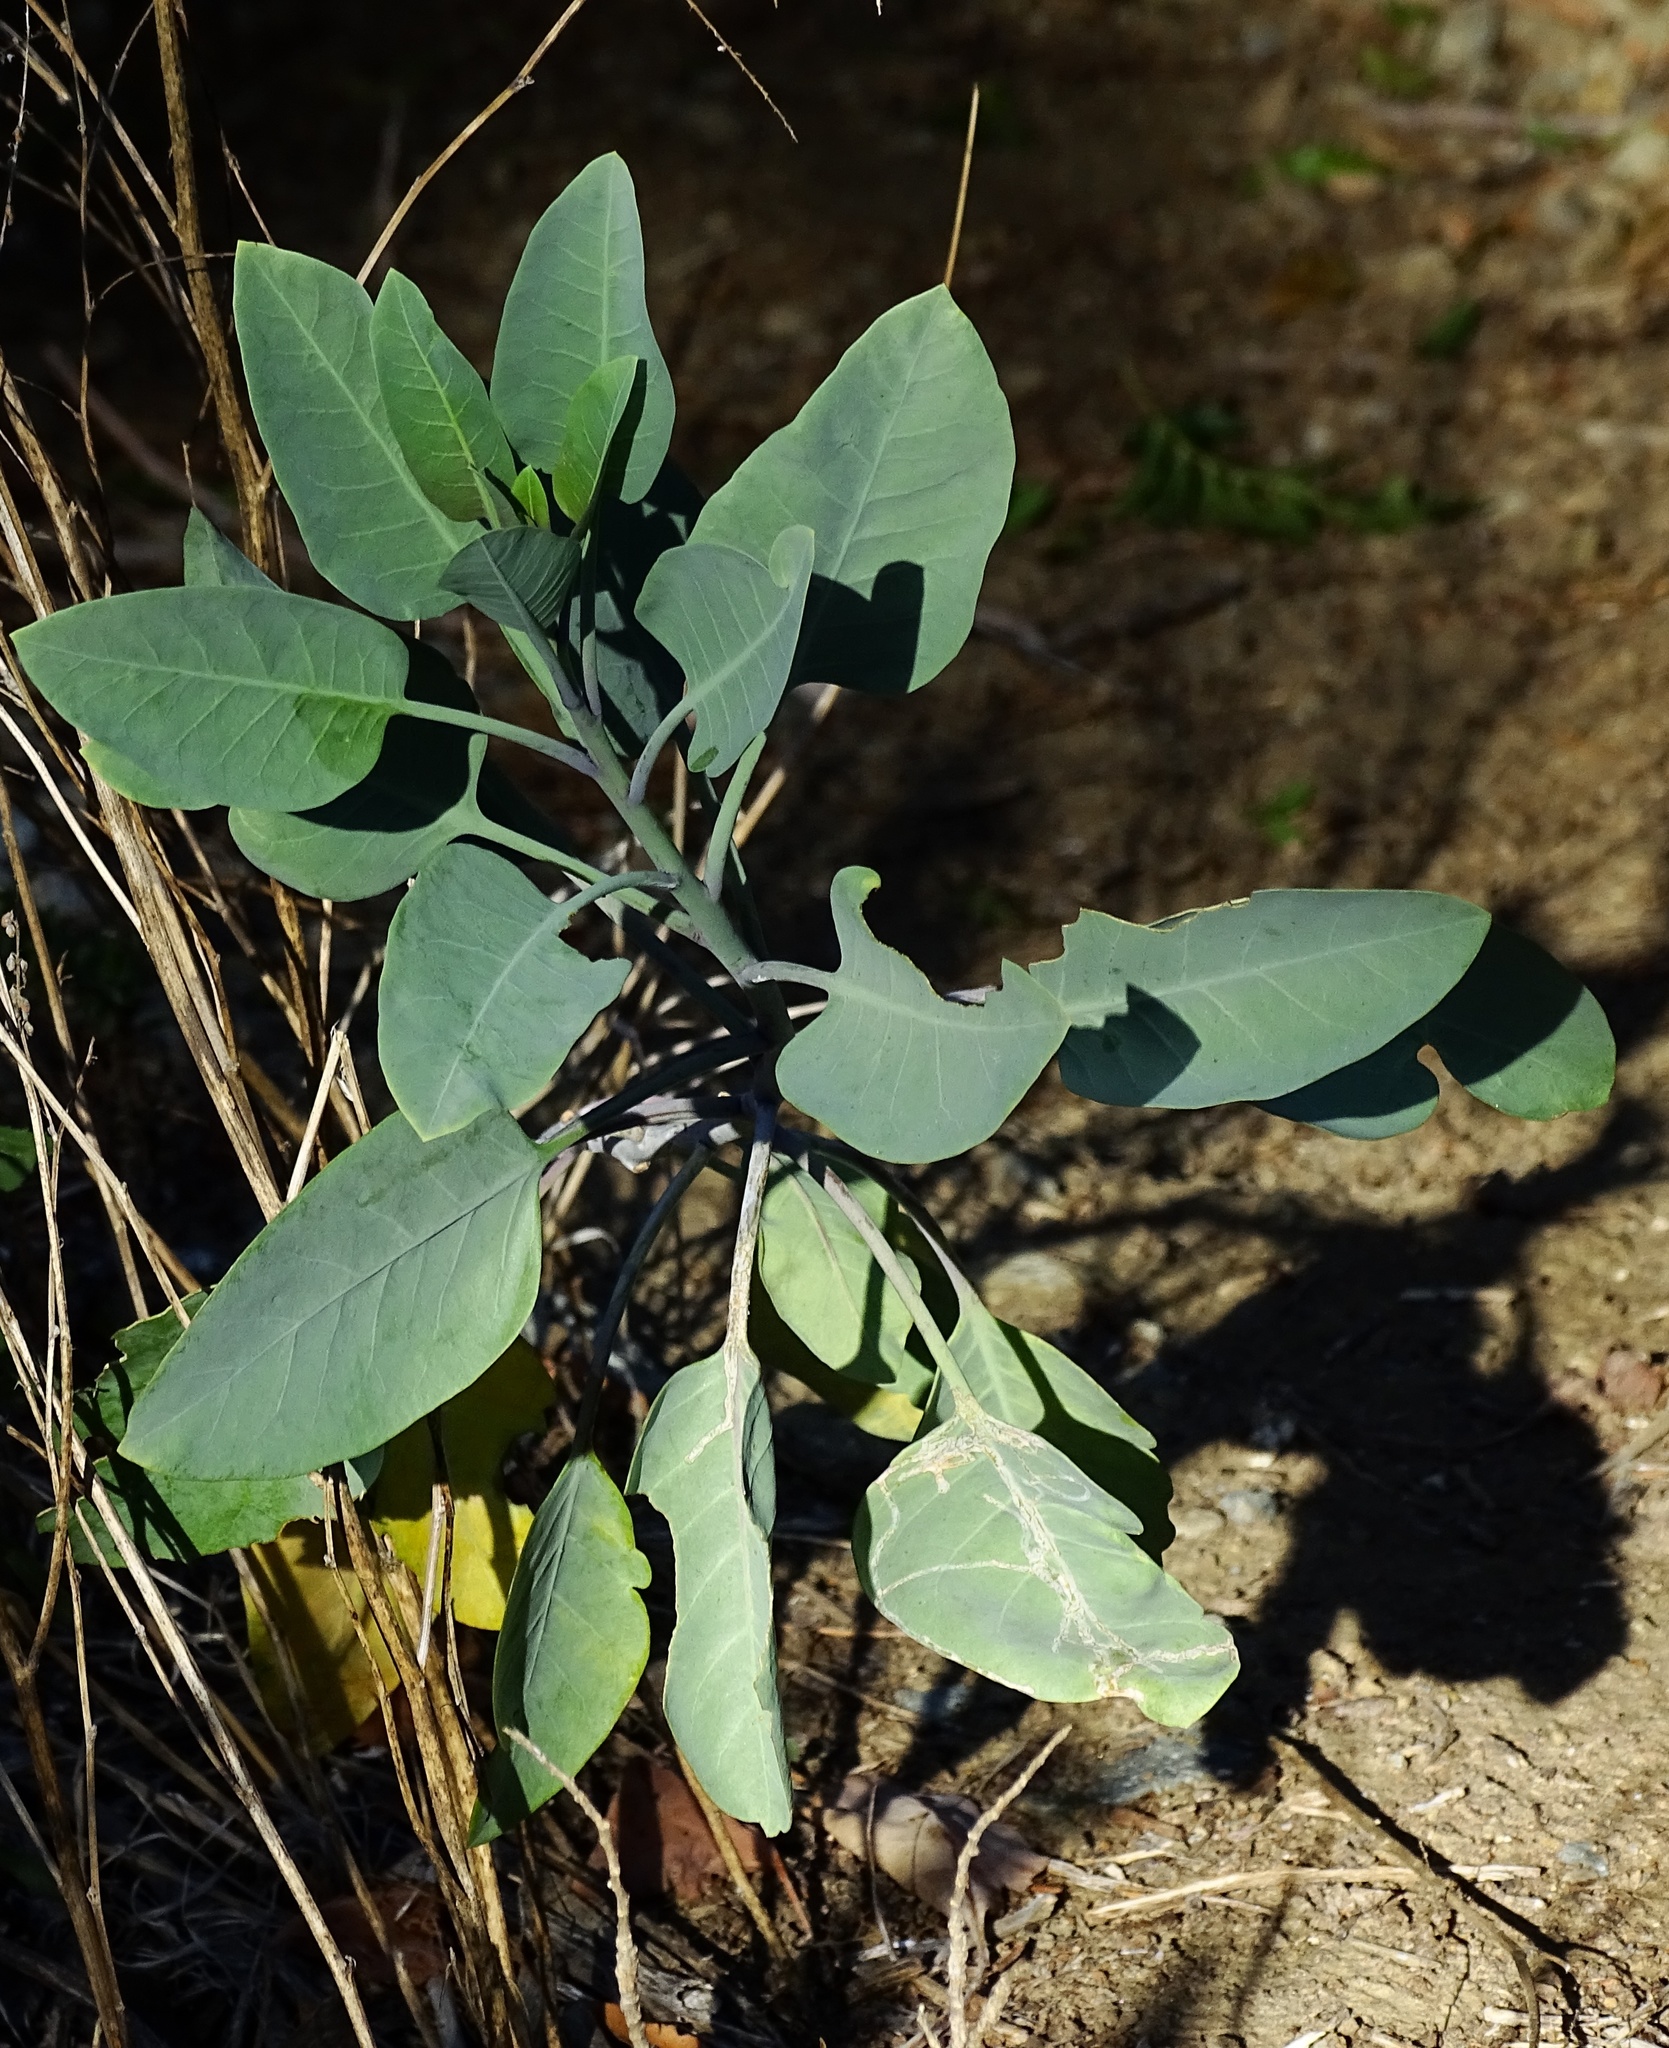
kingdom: Plantae
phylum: Tracheophyta
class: Magnoliopsida
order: Solanales
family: Solanaceae
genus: Nicotiana
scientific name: Nicotiana glauca
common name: Tree tobacco
